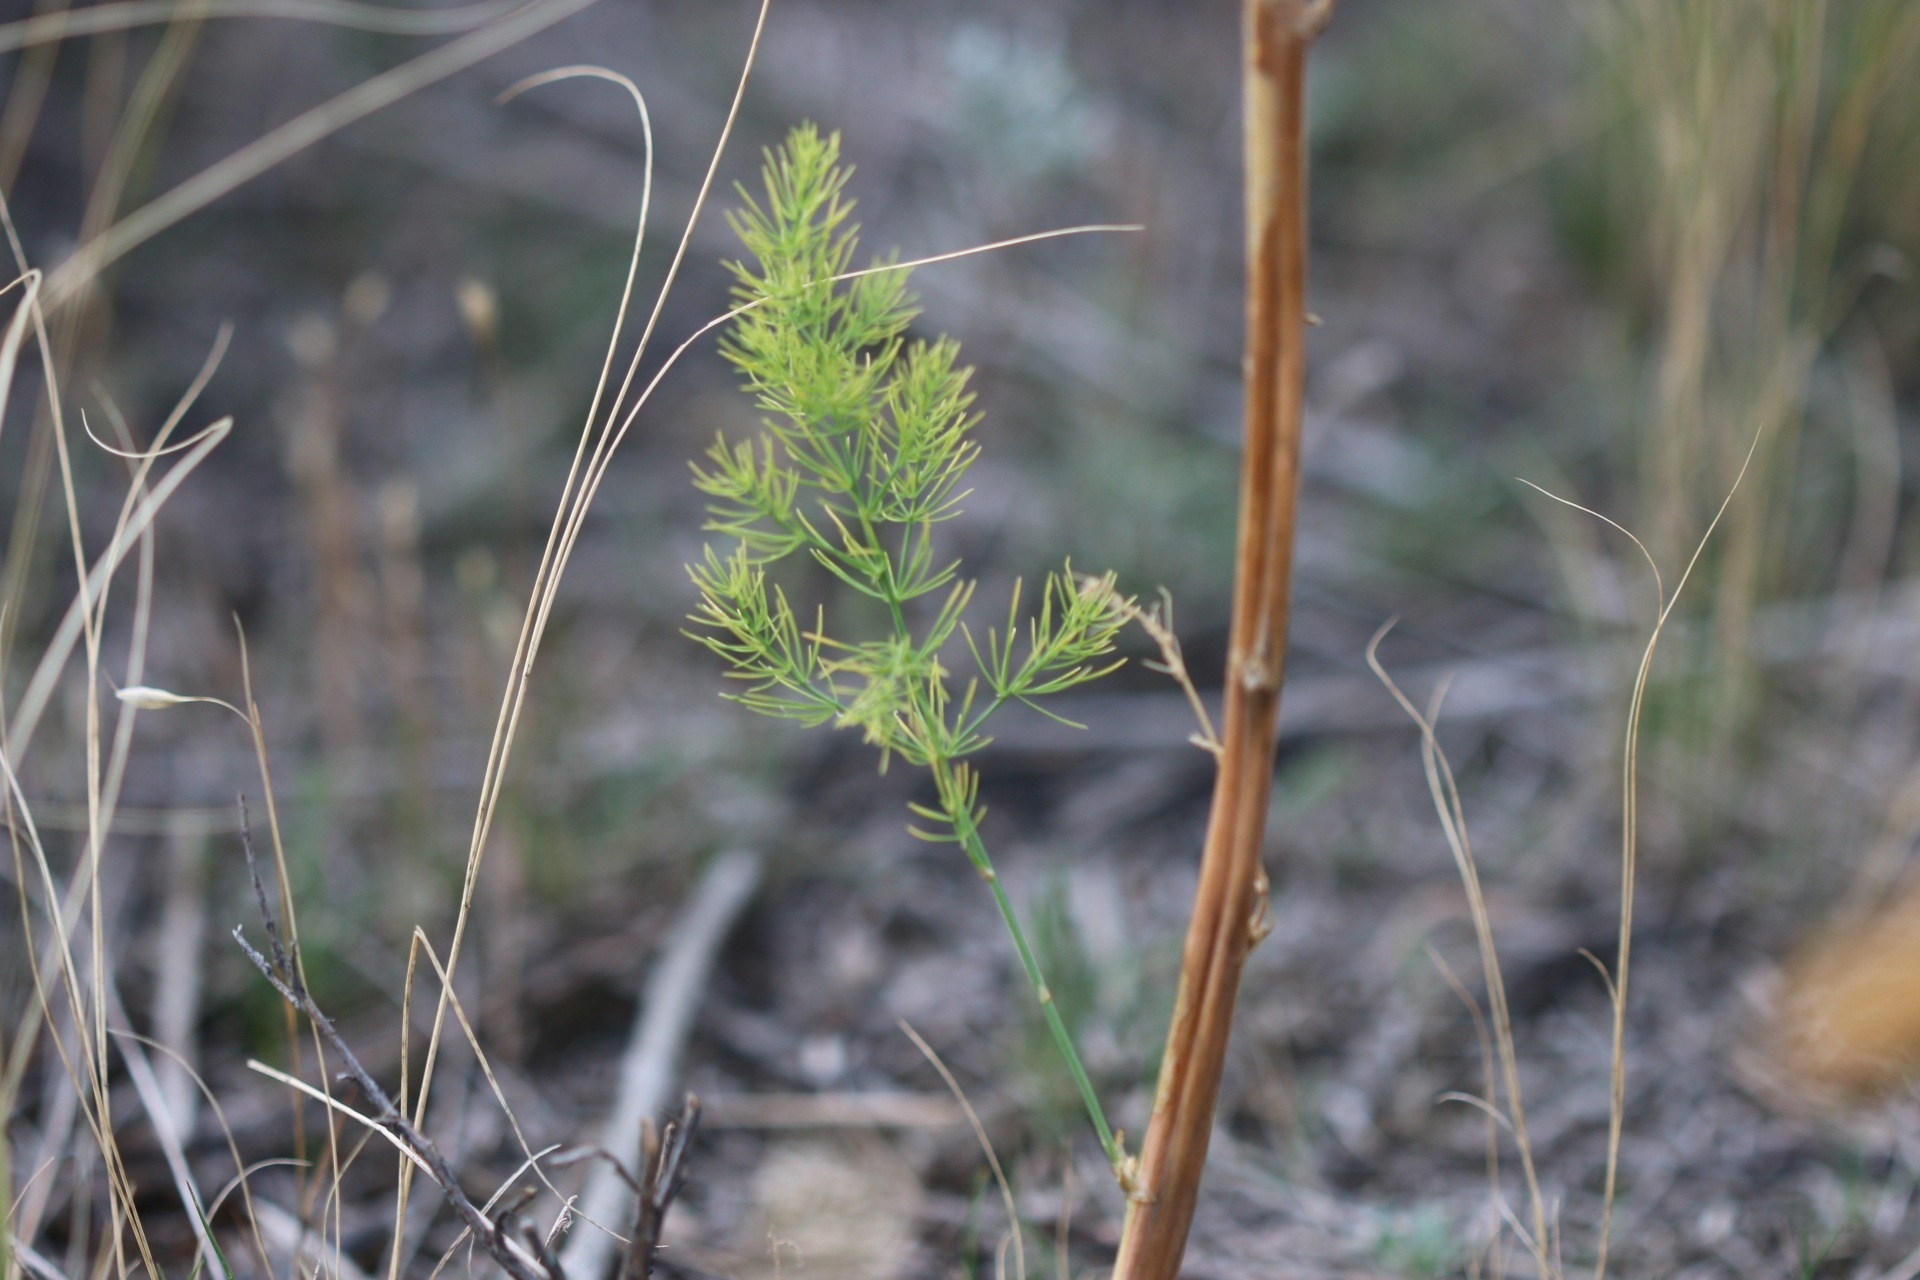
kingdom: Plantae
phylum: Tracheophyta
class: Liliopsida
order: Asparagales
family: Asparagaceae
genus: Asparagus
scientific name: Asparagus officinalis
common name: Garden asparagus
